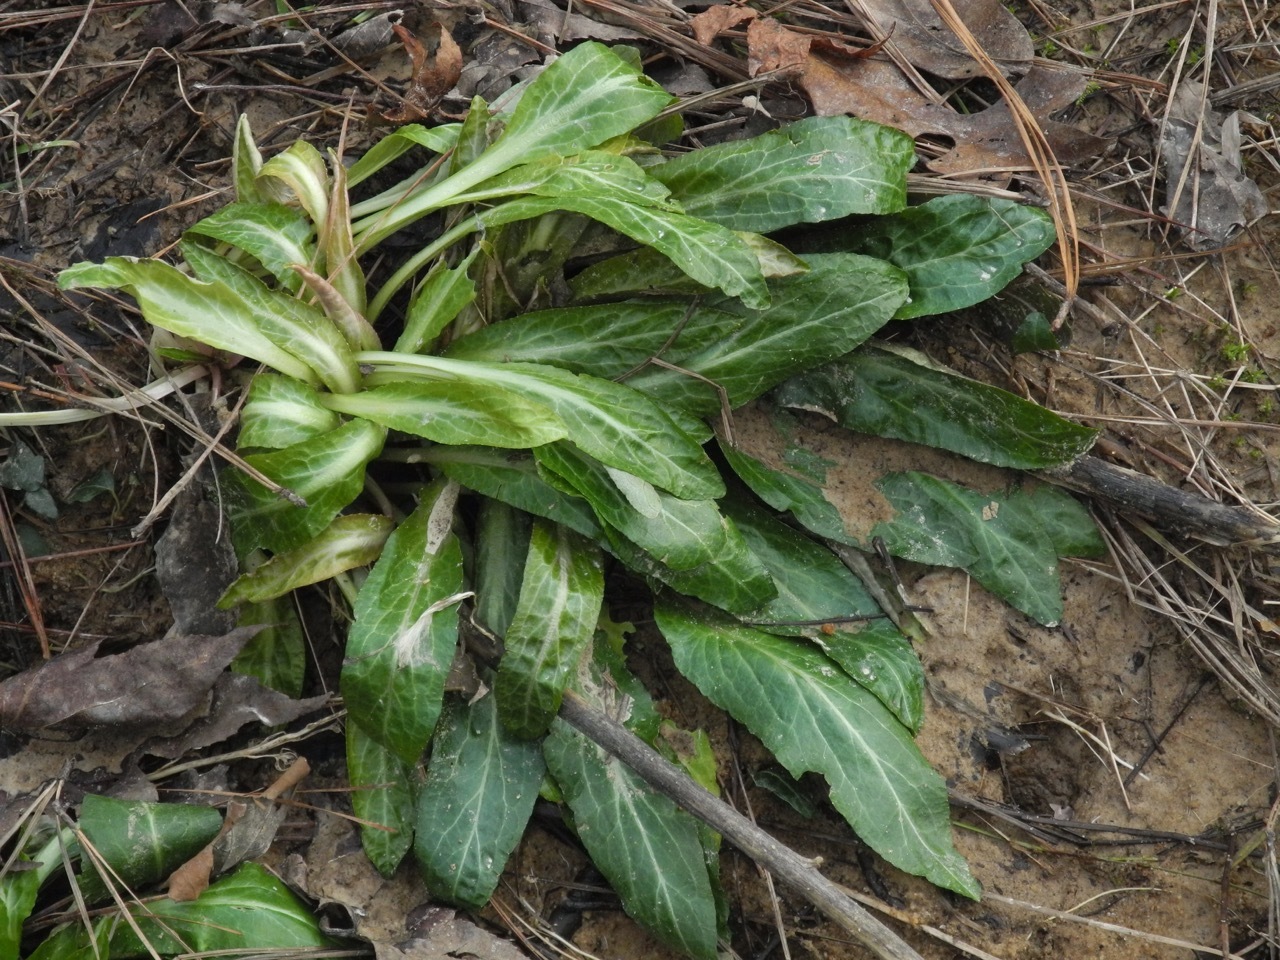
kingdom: Plantae
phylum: Tracheophyta
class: Magnoliopsida
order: Asterales
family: Campanulaceae
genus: Lobelia
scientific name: Lobelia cardinalis
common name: Cardinal flower
